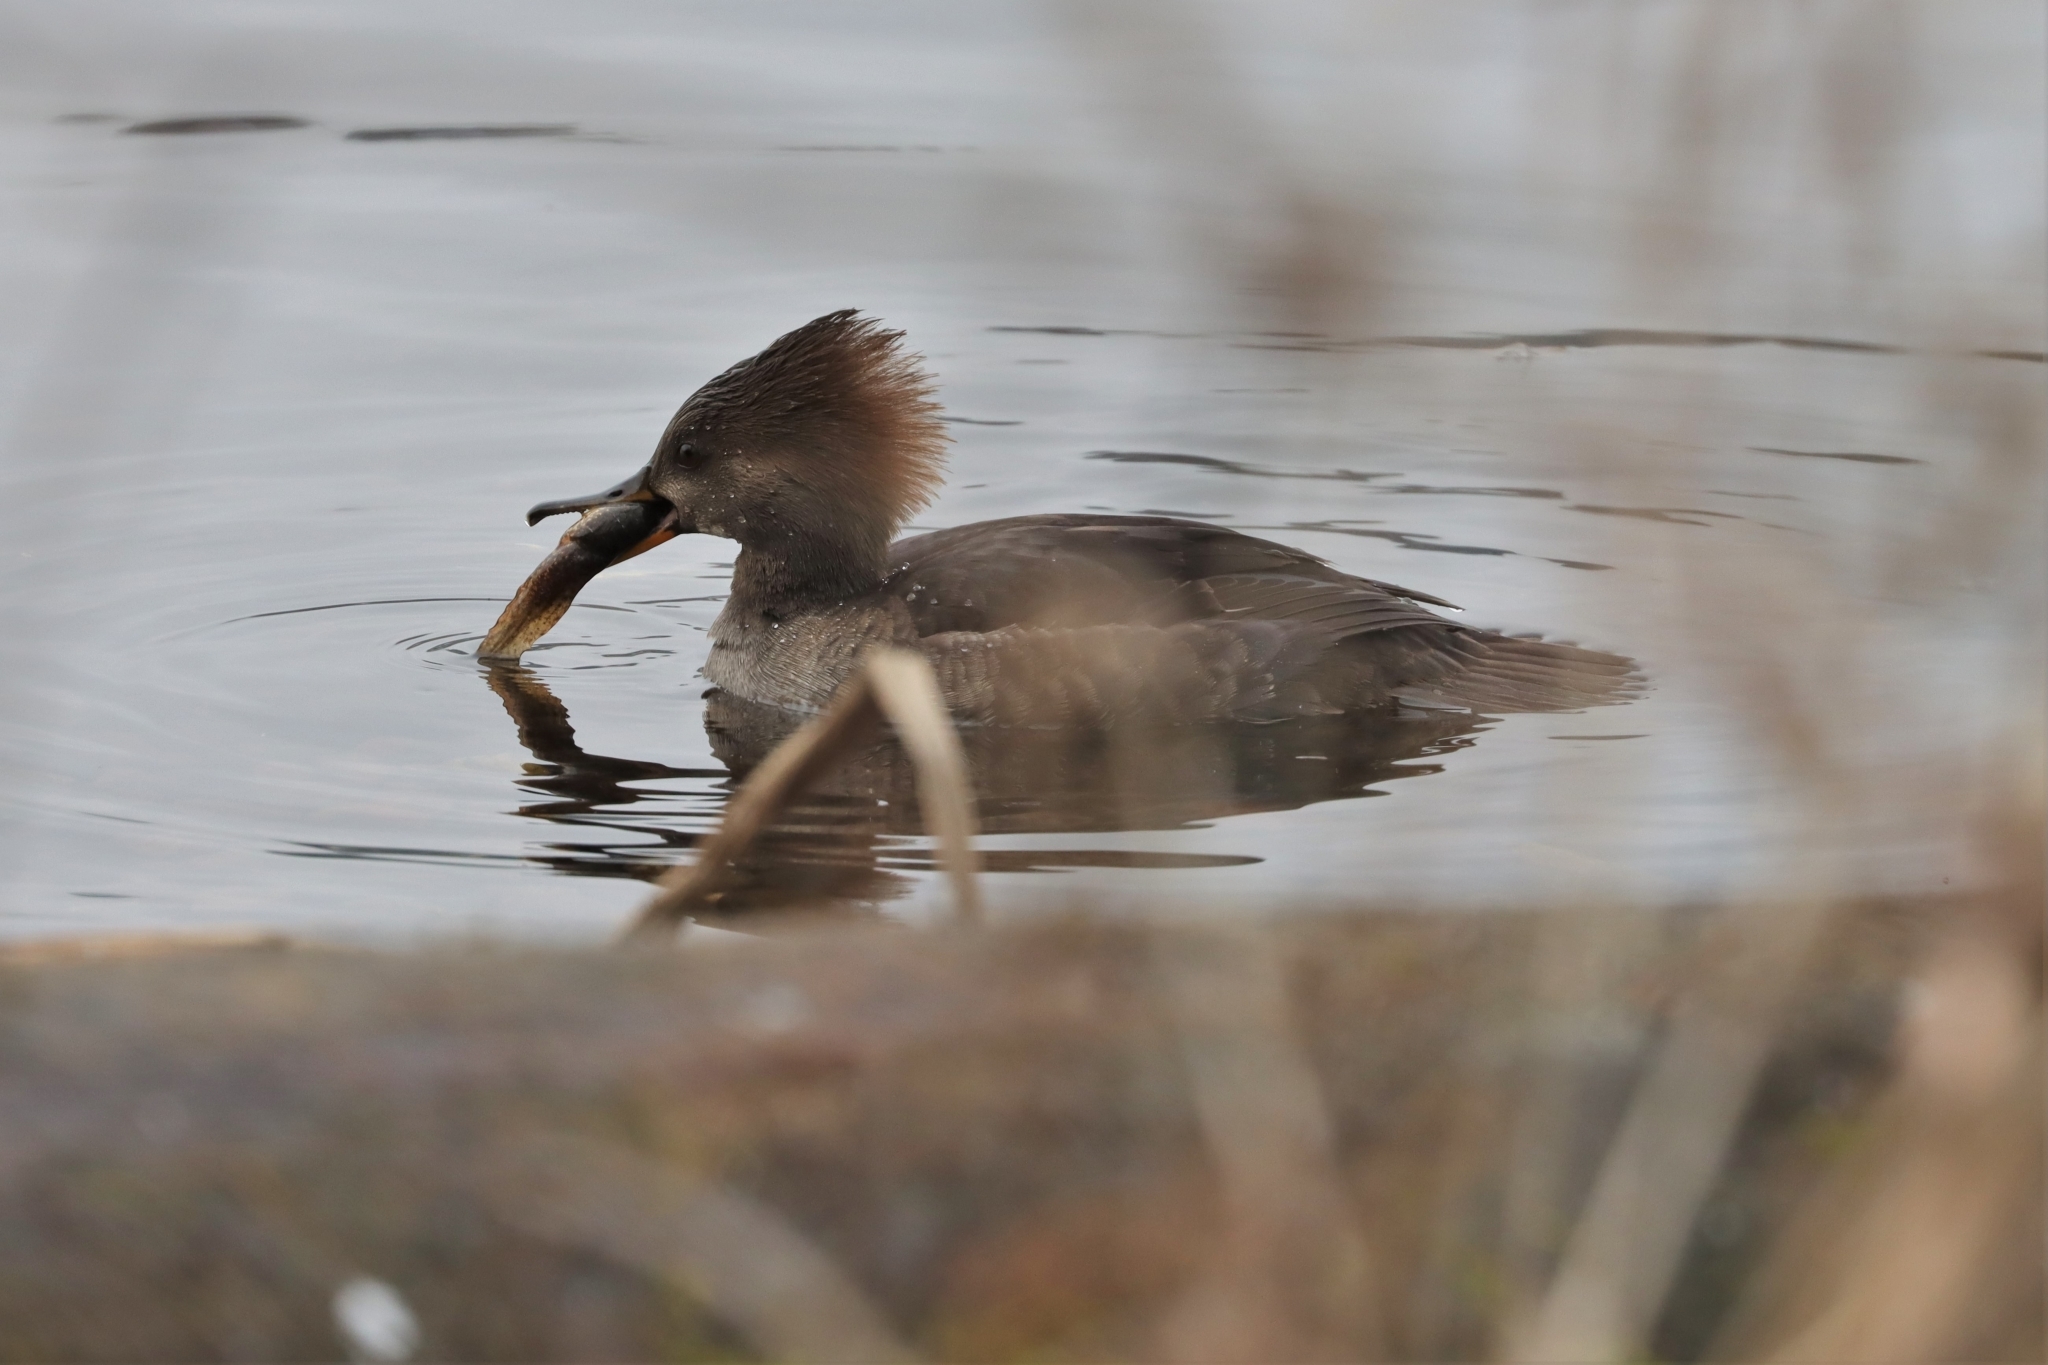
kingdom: Animalia
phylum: Chordata
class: Aves
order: Anseriformes
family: Anatidae
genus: Lophodytes
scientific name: Lophodytes cucullatus
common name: Hooded merganser
